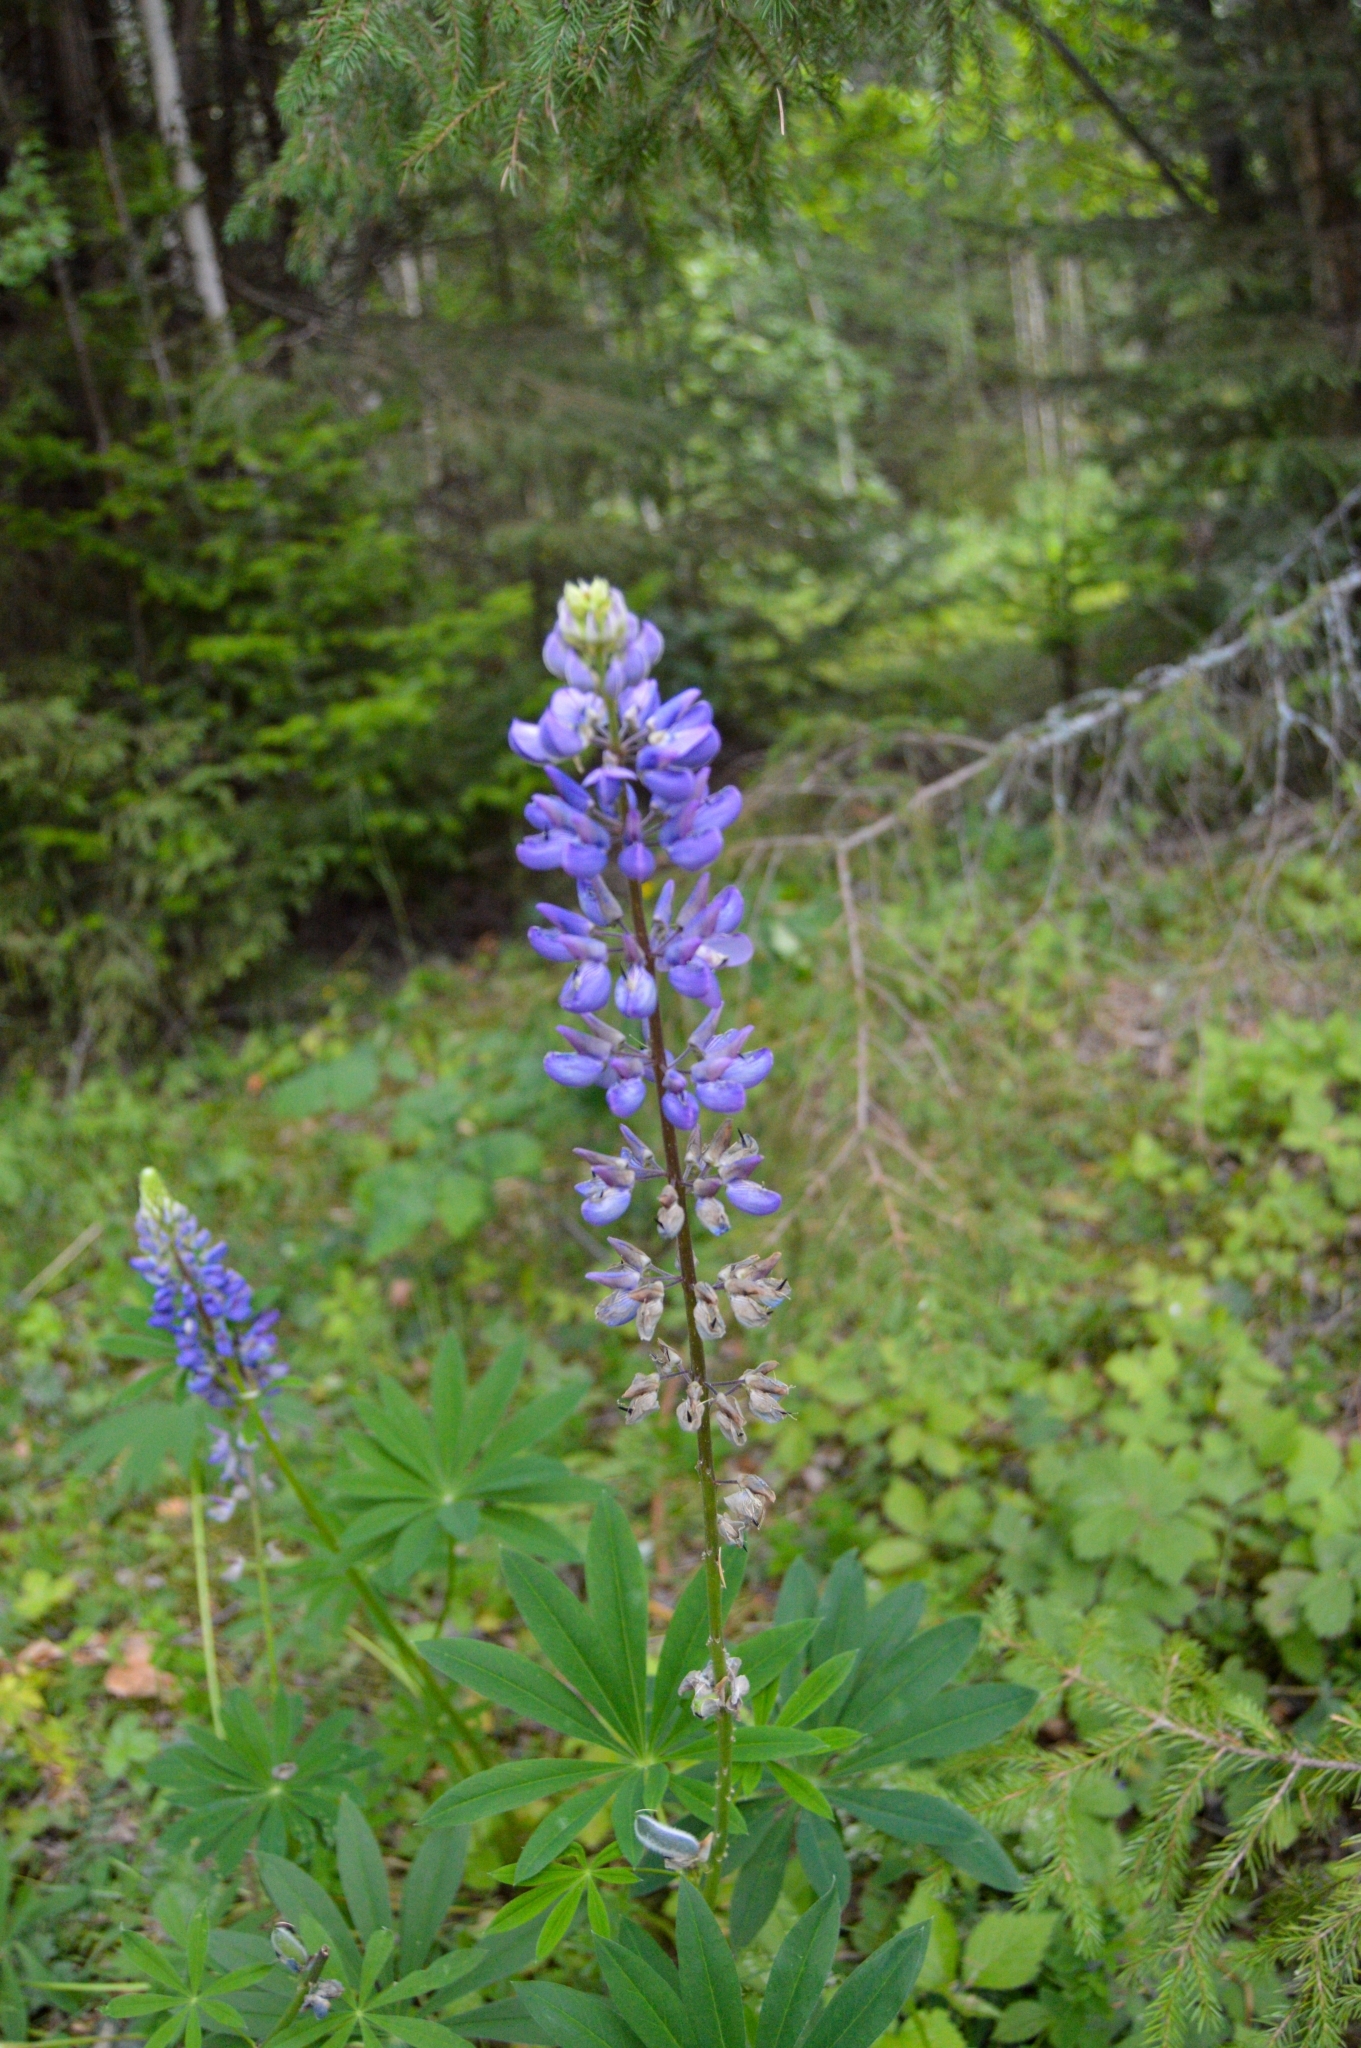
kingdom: Plantae
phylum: Tracheophyta
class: Magnoliopsida
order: Fabales
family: Fabaceae
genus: Lupinus
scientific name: Lupinus polyphyllus
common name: Garden lupin
